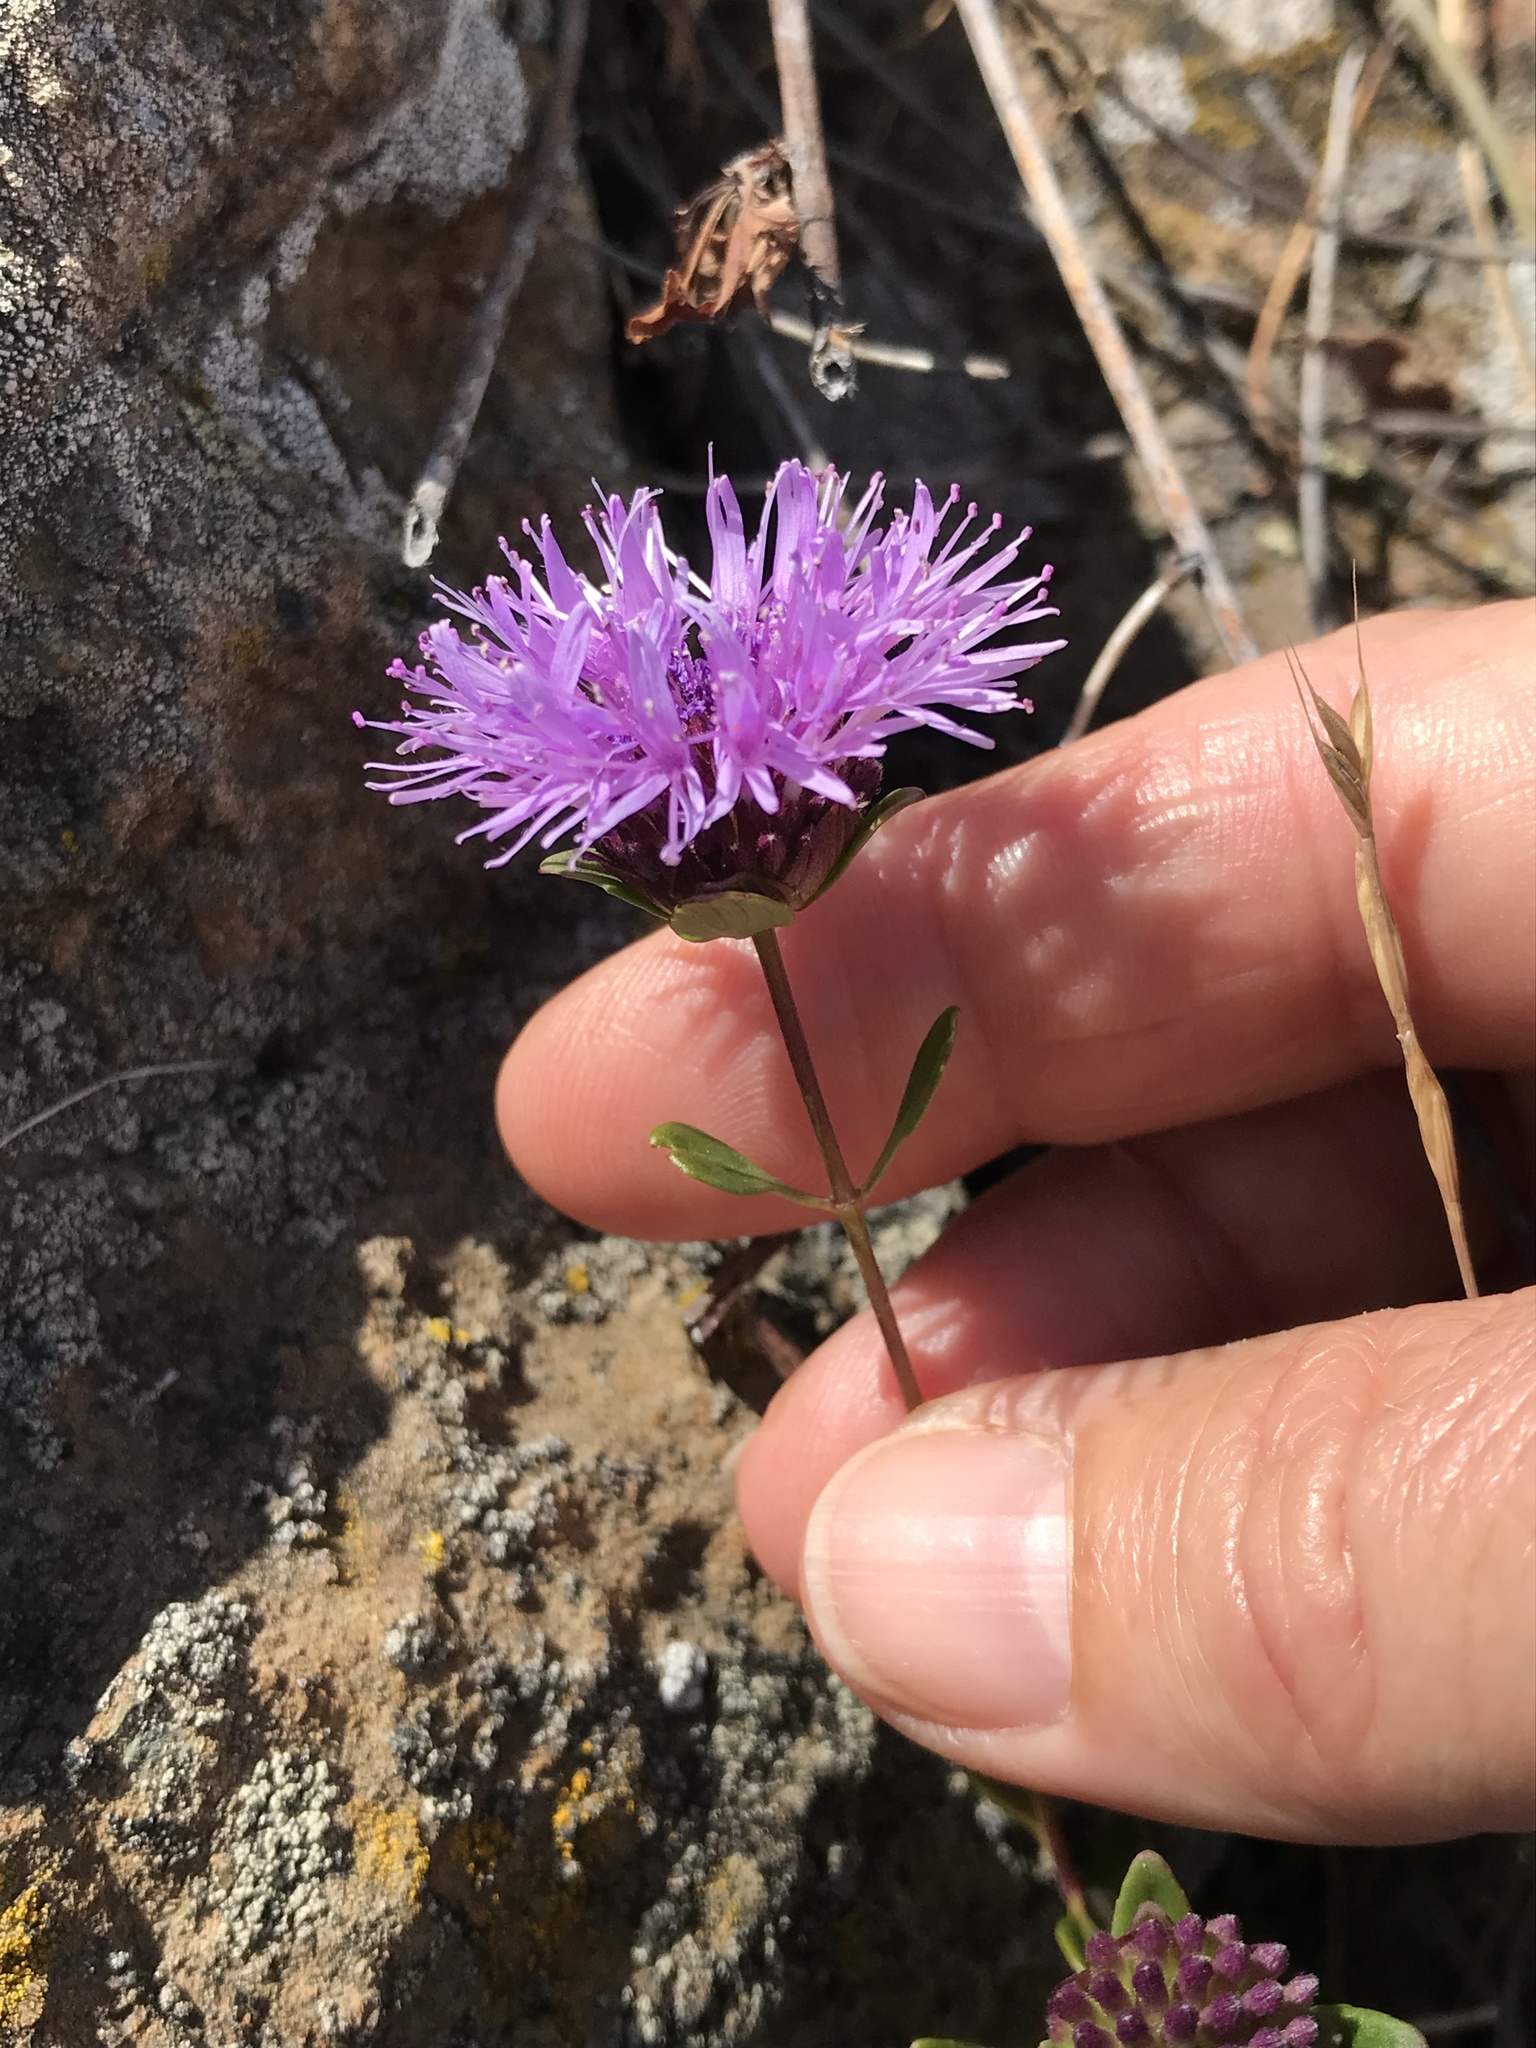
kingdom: Plantae
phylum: Tracheophyta
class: Magnoliopsida
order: Lamiales
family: Lamiaceae
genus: Monardella
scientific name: Monardella purpurea
